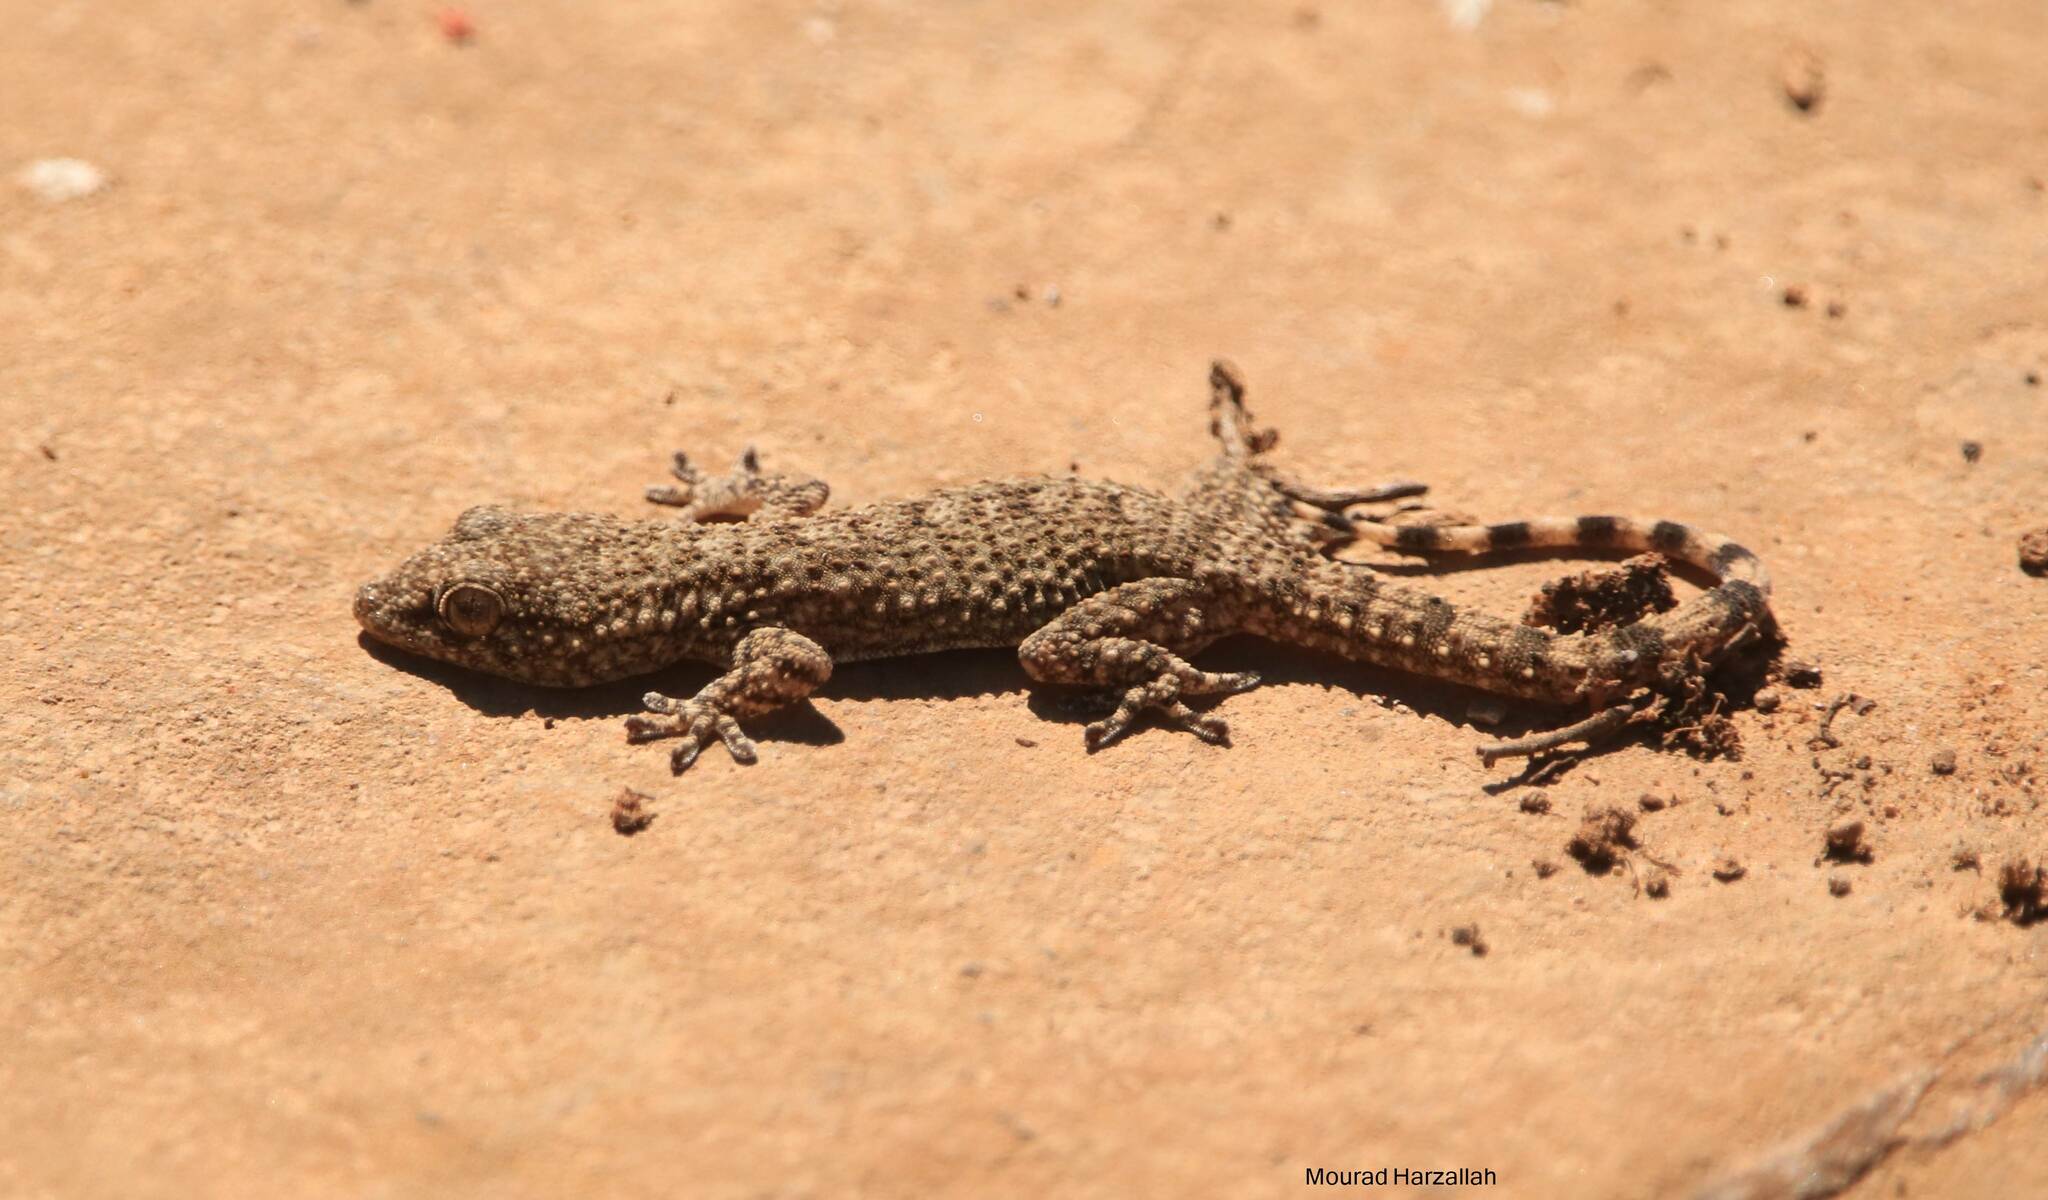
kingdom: Animalia
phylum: Chordata
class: Squamata
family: Phyllodactylidae
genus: Tarentola
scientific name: Tarentola mauritanica
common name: Moorish gecko
